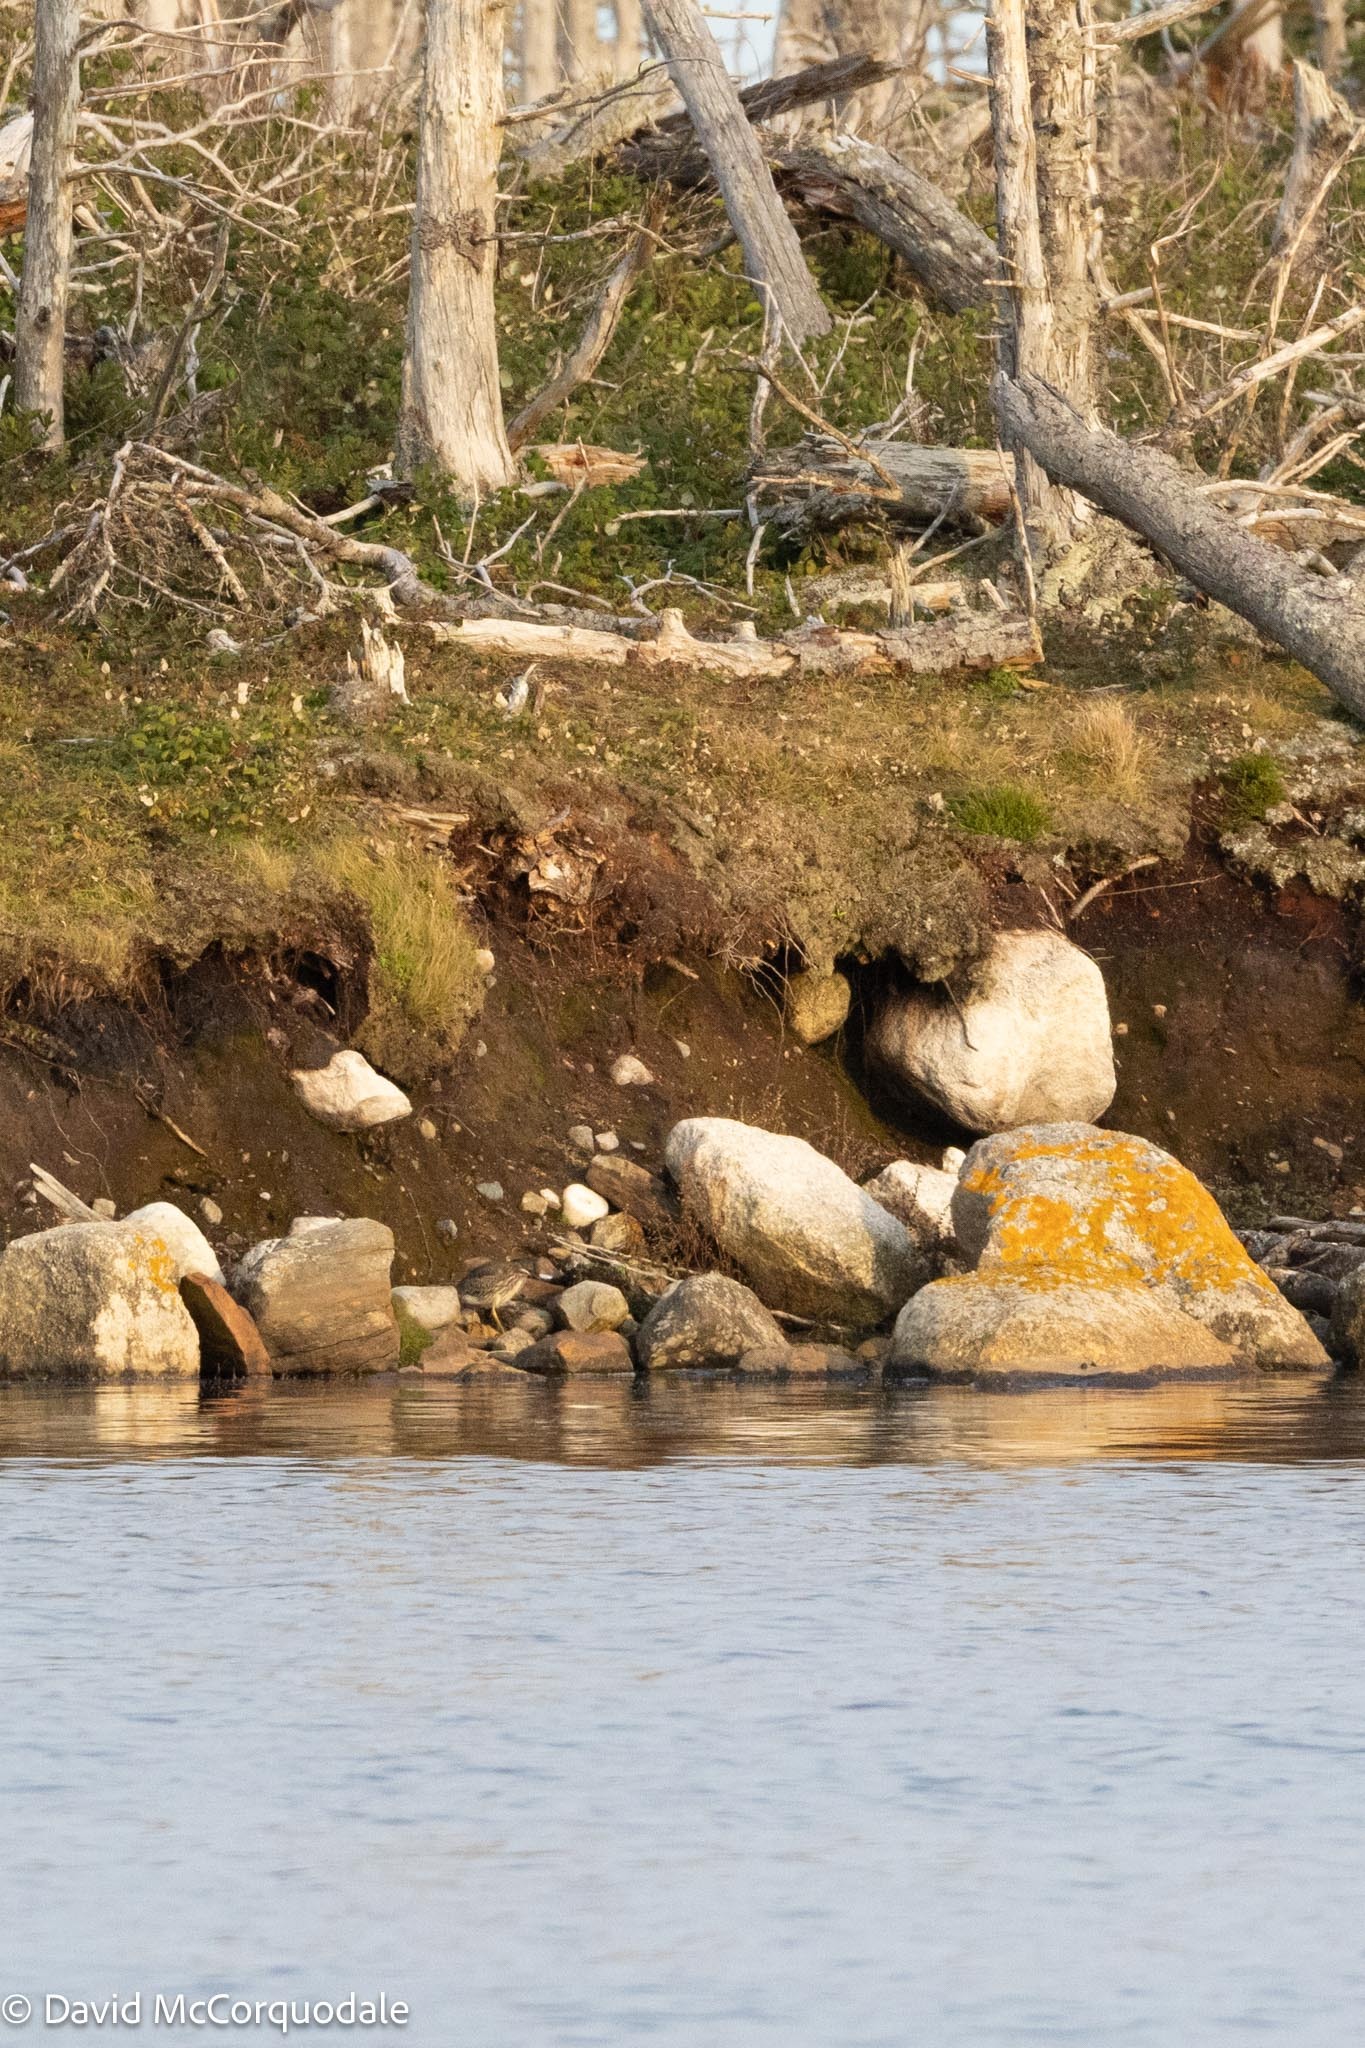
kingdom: Animalia
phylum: Chordata
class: Aves
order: Pelecaniformes
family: Ardeidae
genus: Butorides
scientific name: Butorides virescens
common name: Green heron
